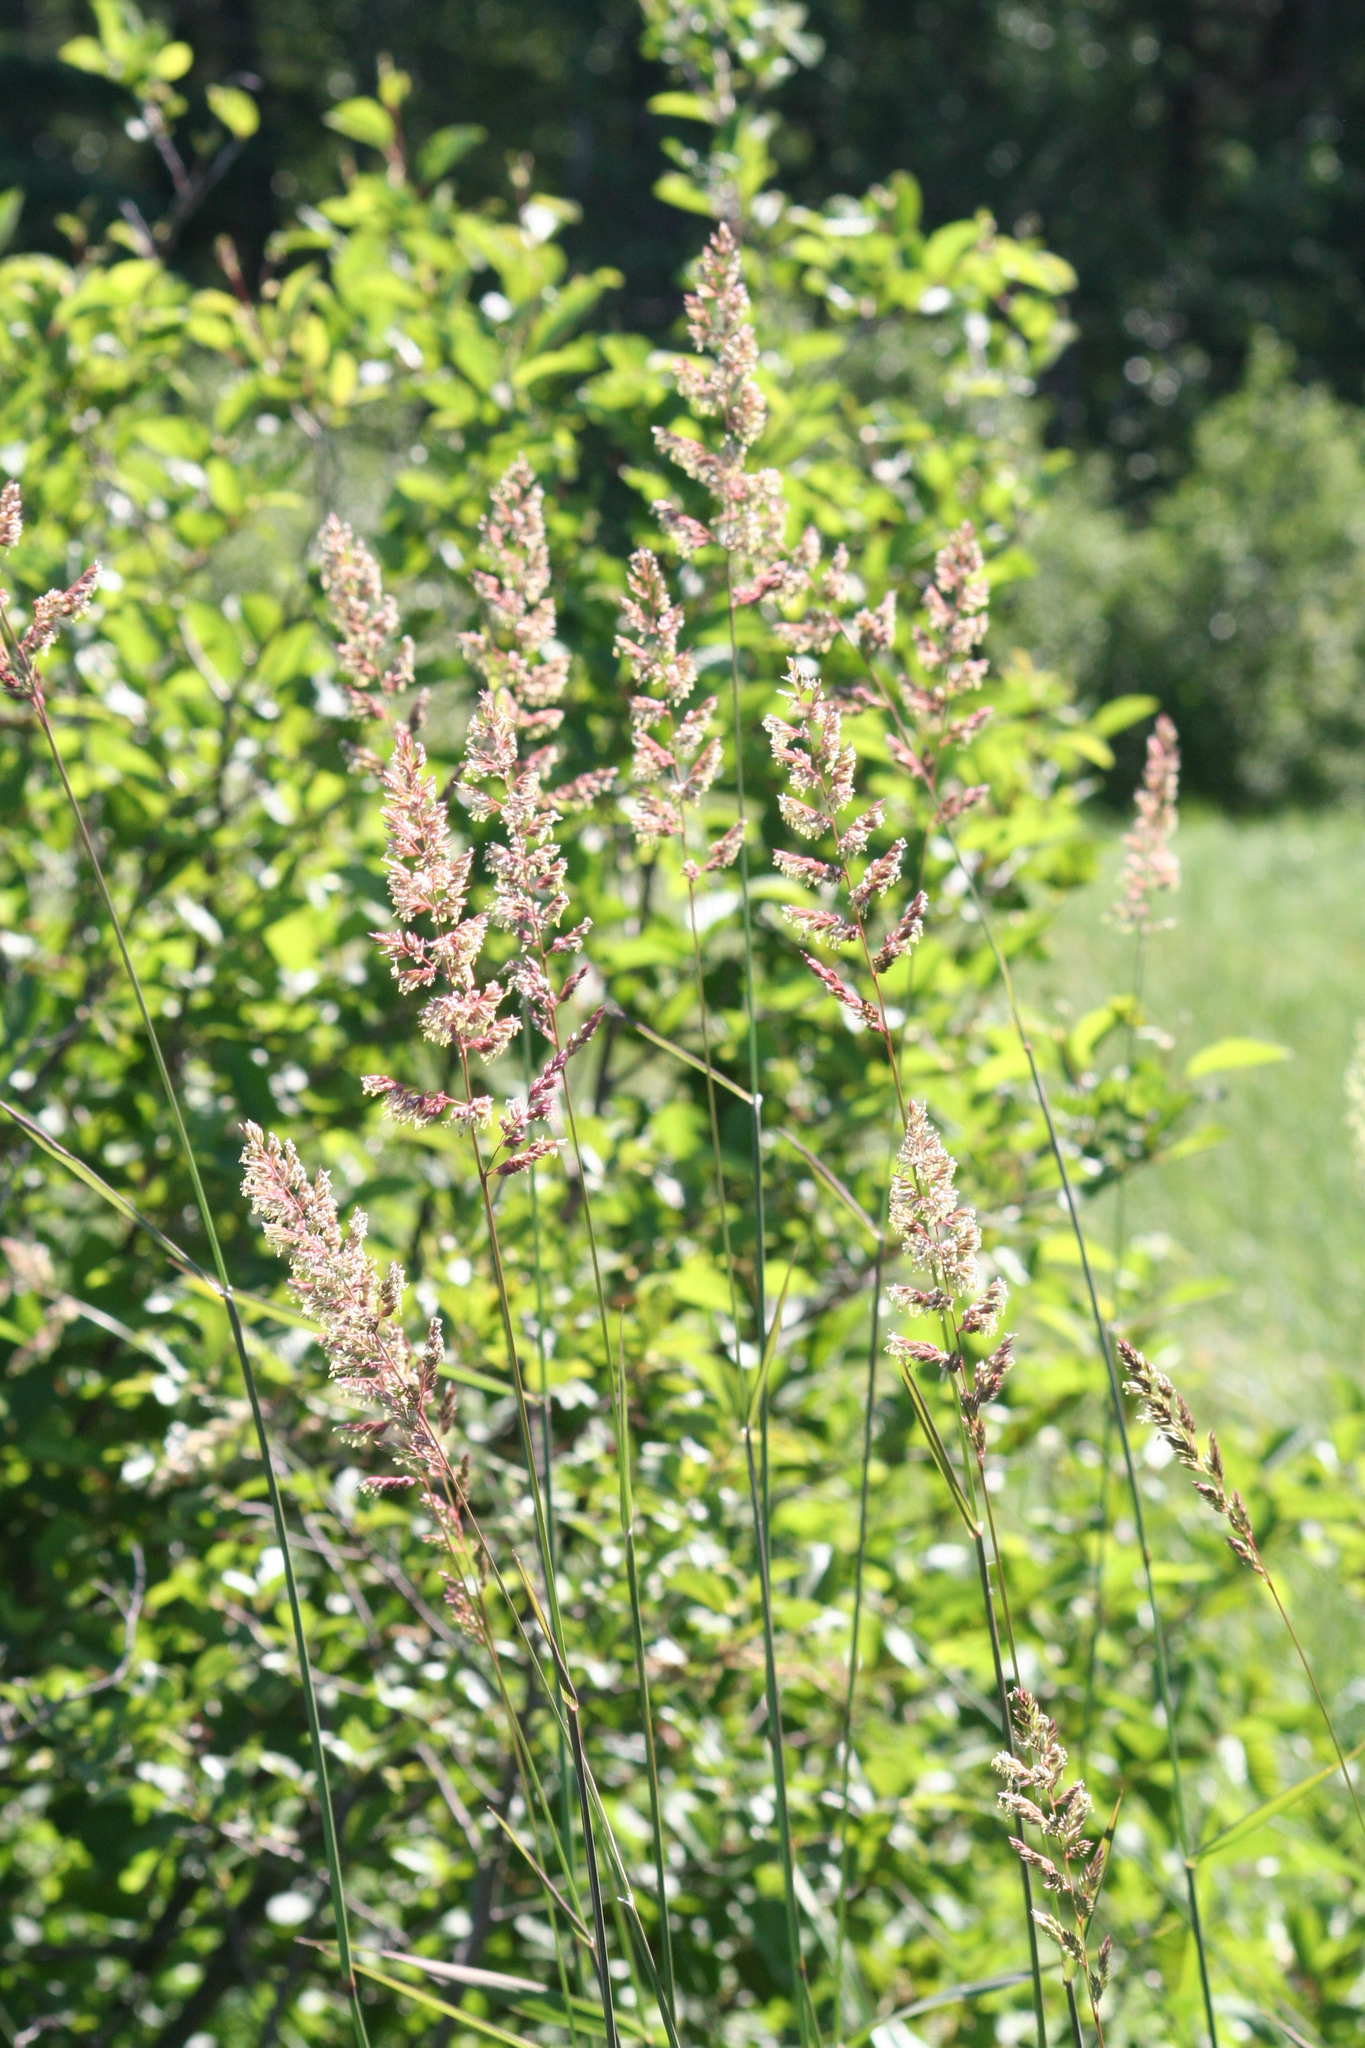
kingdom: Plantae
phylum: Tracheophyta
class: Liliopsida
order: Poales
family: Poaceae
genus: Phalaris
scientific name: Phalaris arundinacea
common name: Reed canary-grass
